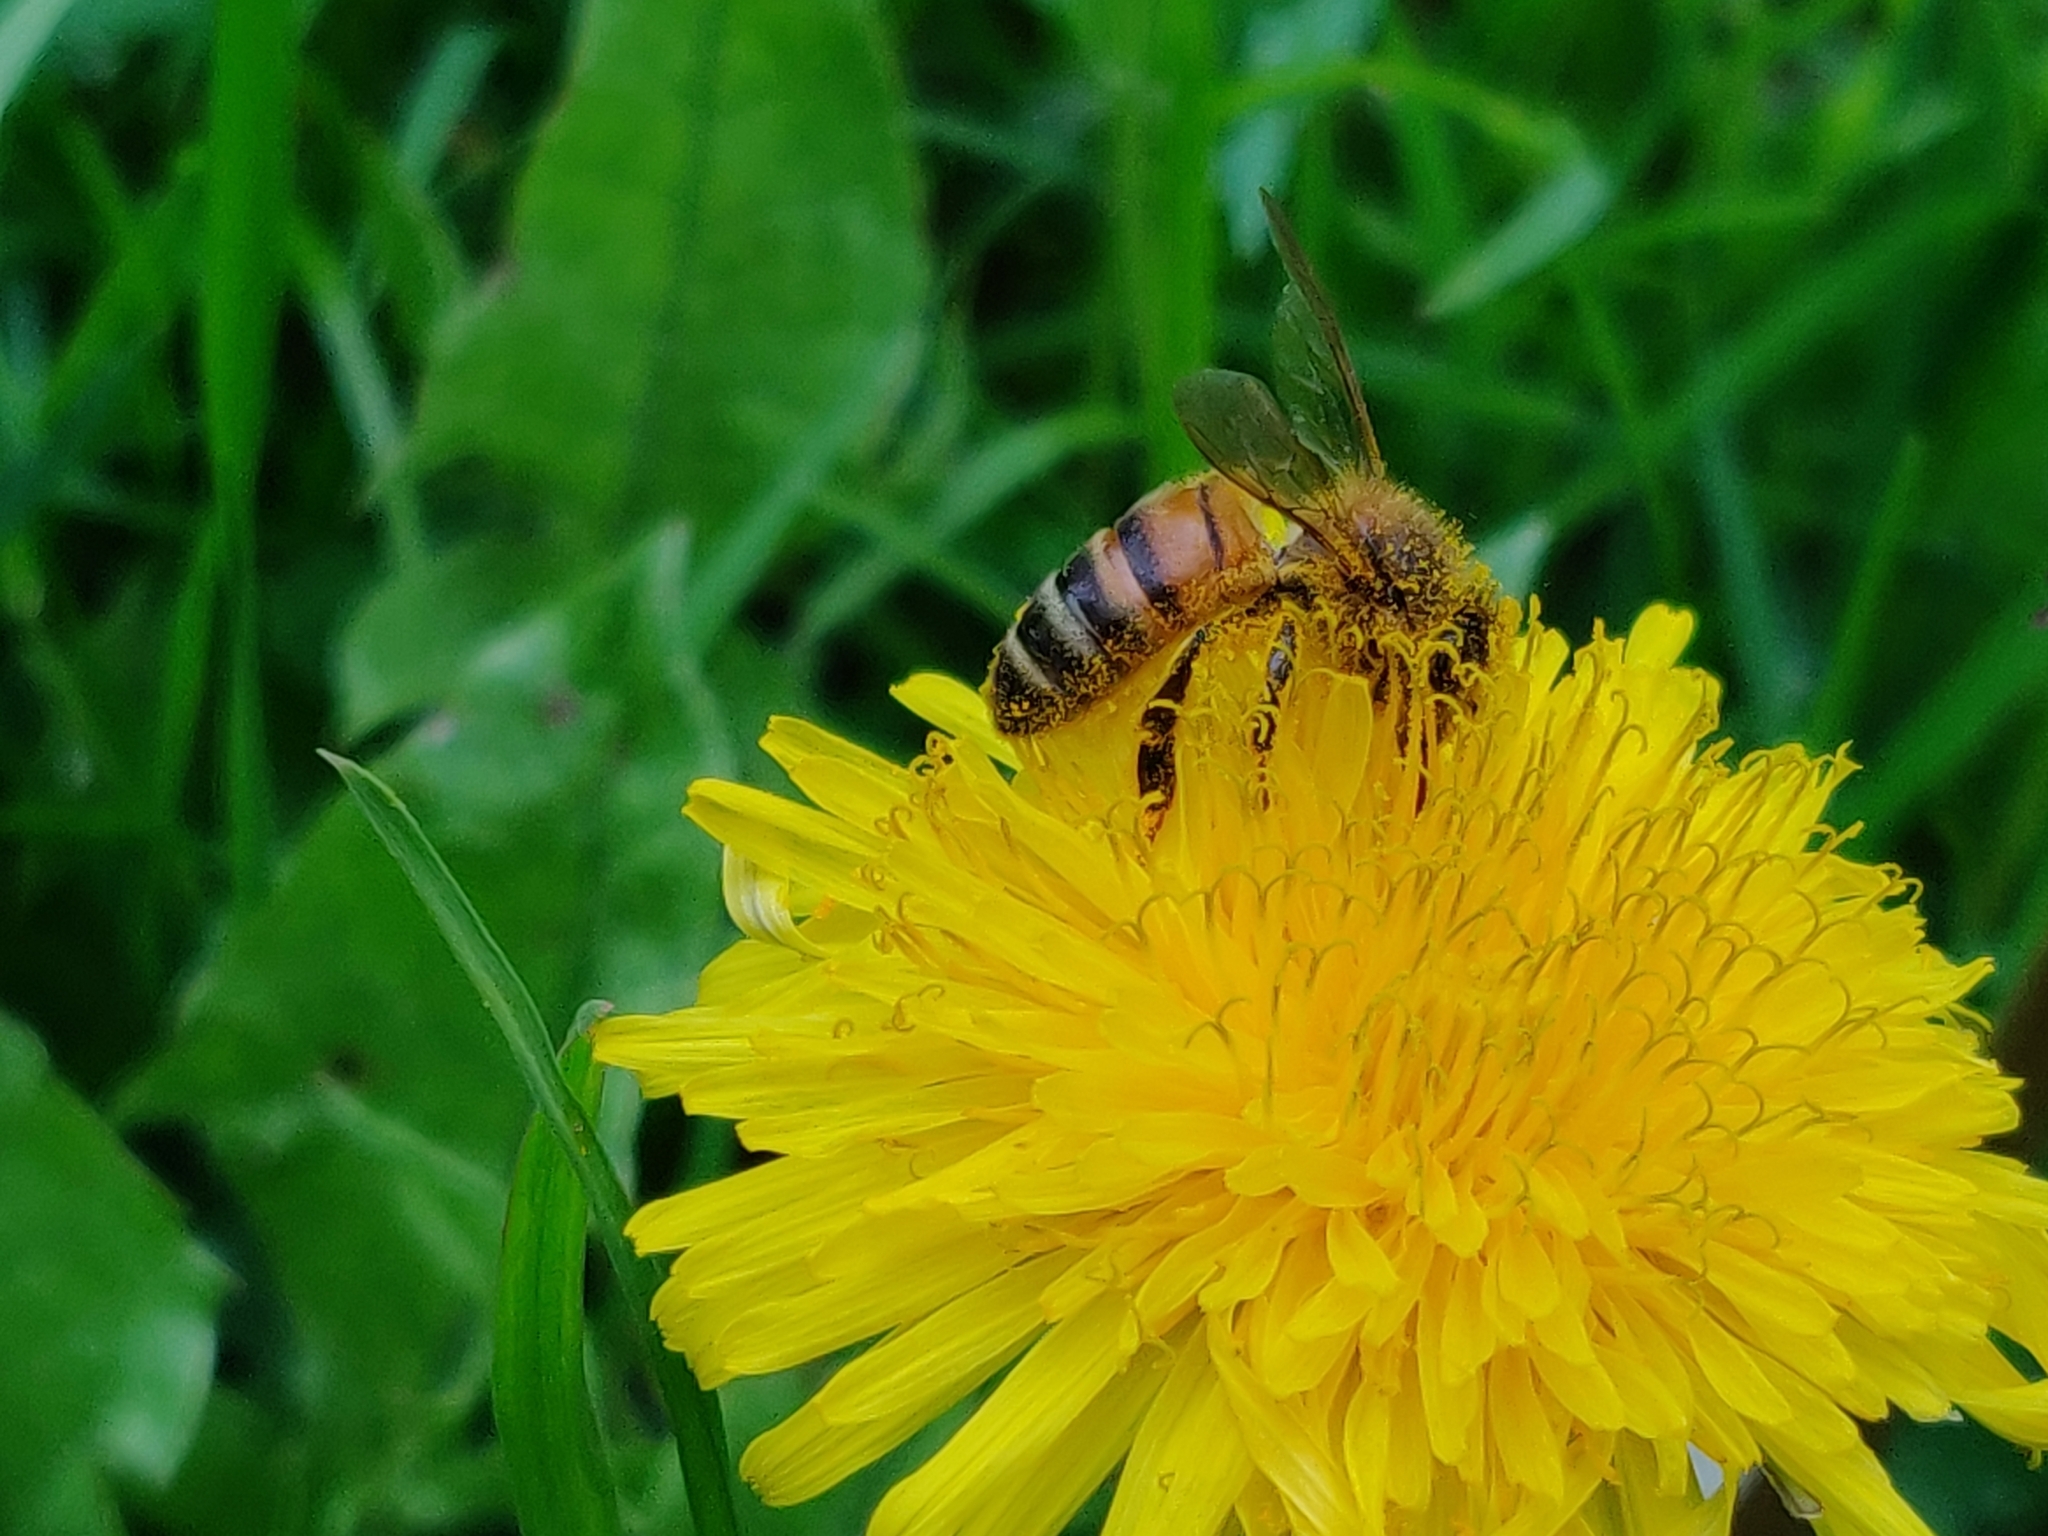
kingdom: Animalia
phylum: Arthropoda
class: Insecta
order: Hymenoptera
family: Apidae
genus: Apis
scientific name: Apis mellifera
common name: Honey bee
